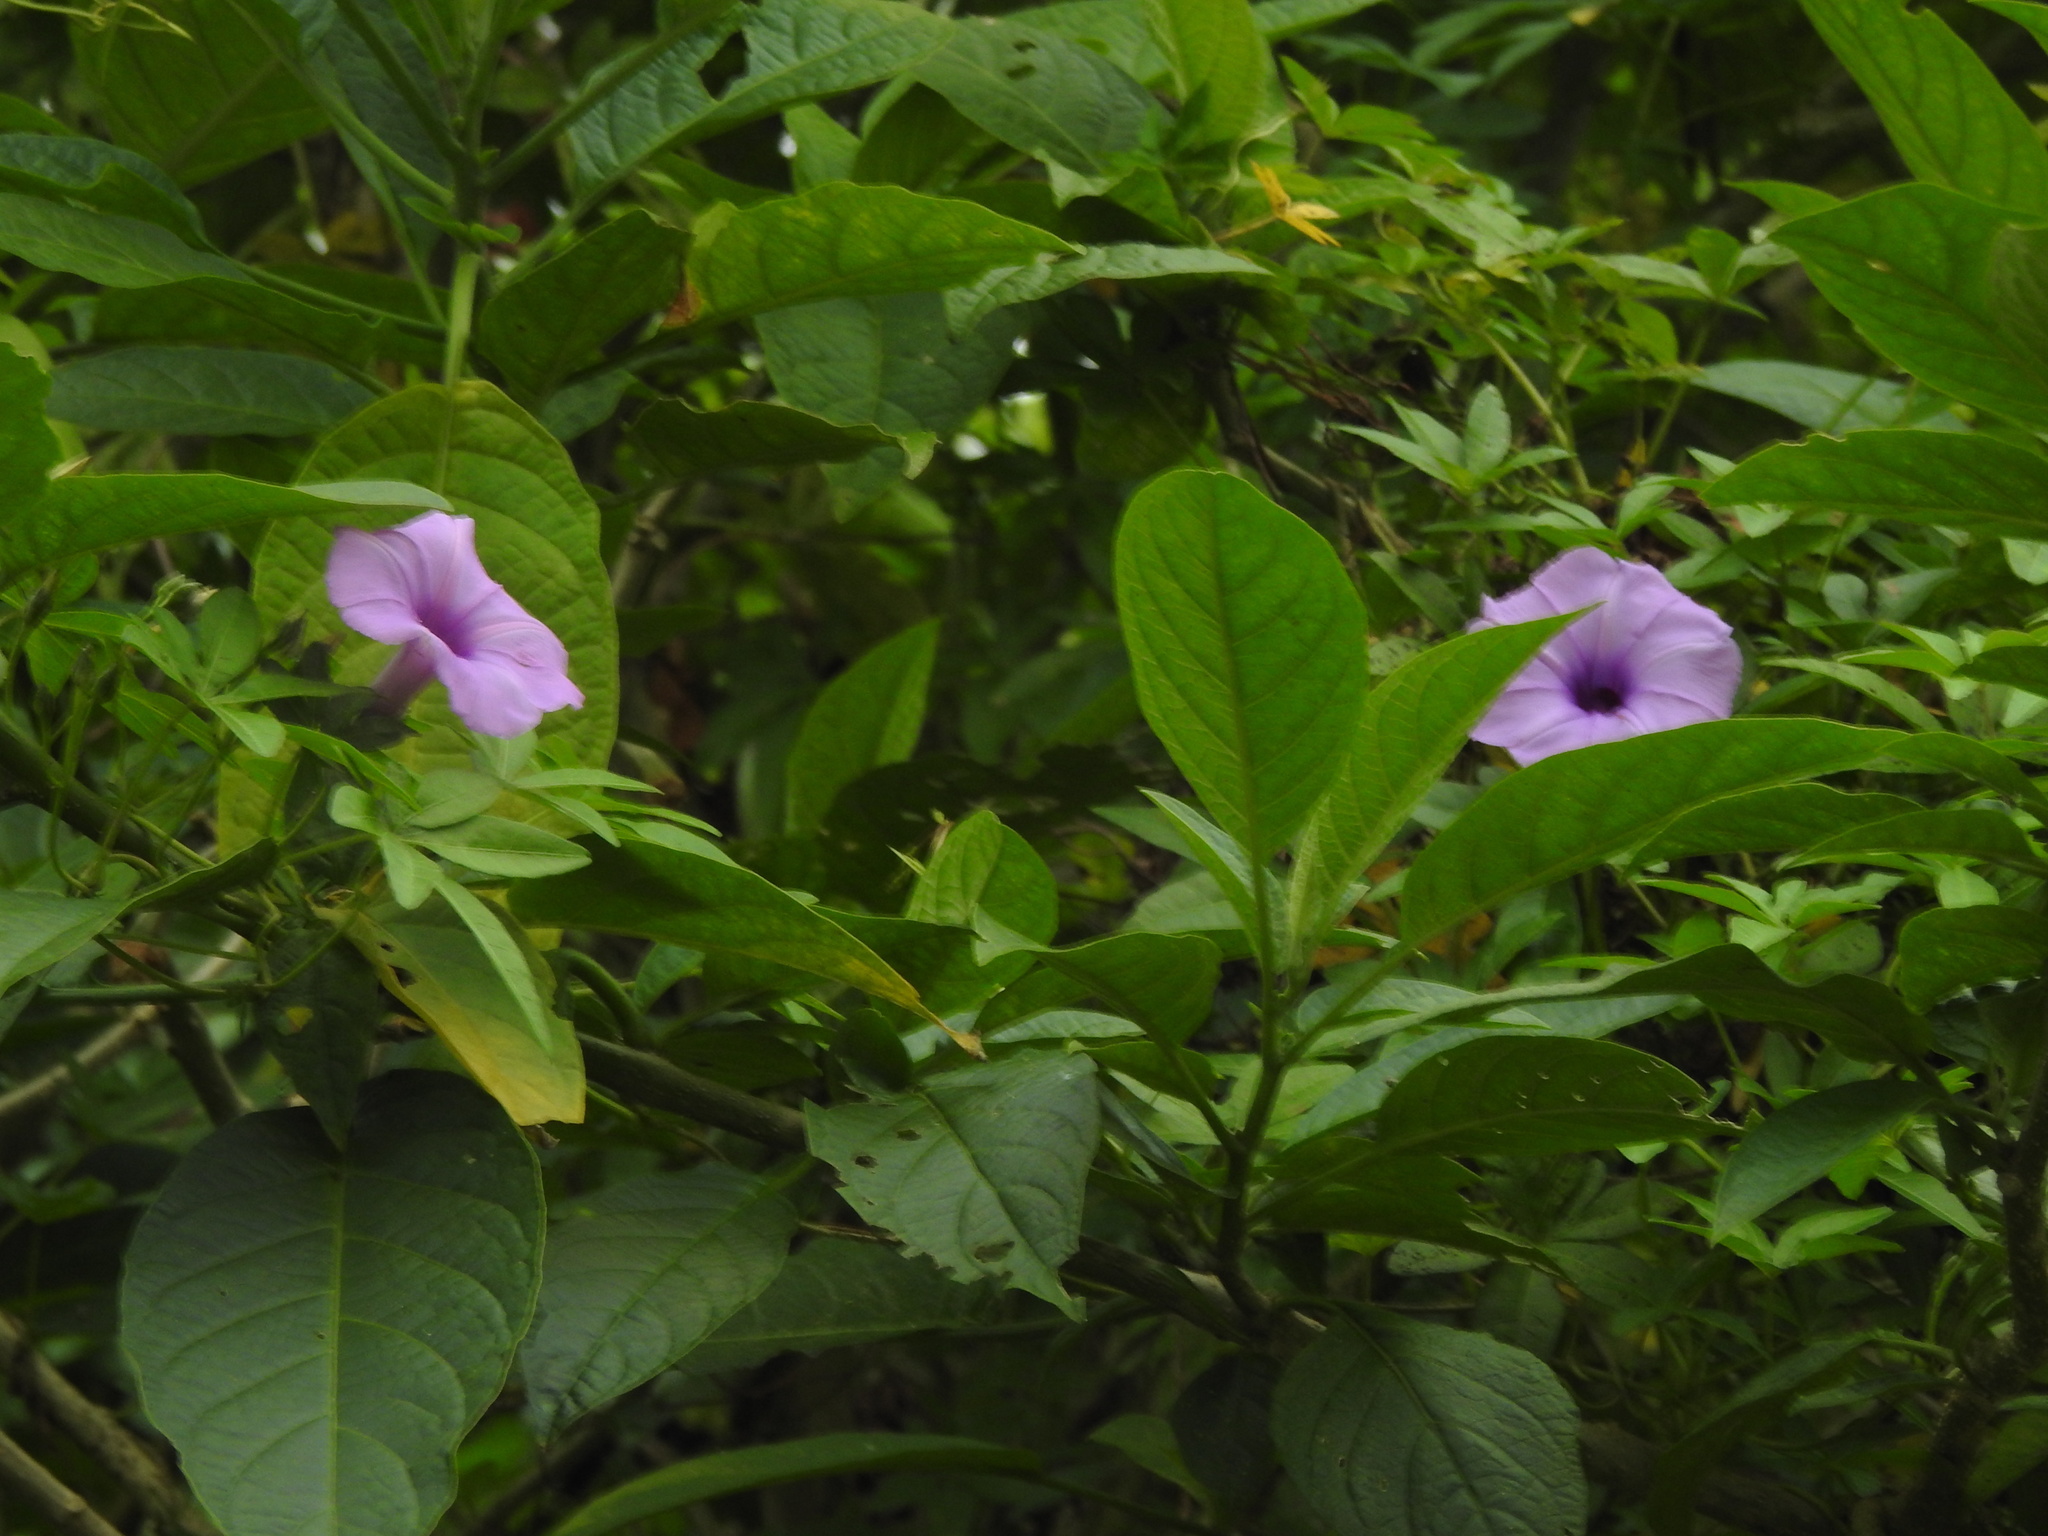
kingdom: Plantae
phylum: Tracheophyta
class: Magnoliopsida
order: Solanales
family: Convolvulaceae
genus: Ipomoea
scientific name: Ipomoea cairica
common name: Mile a minute vine
